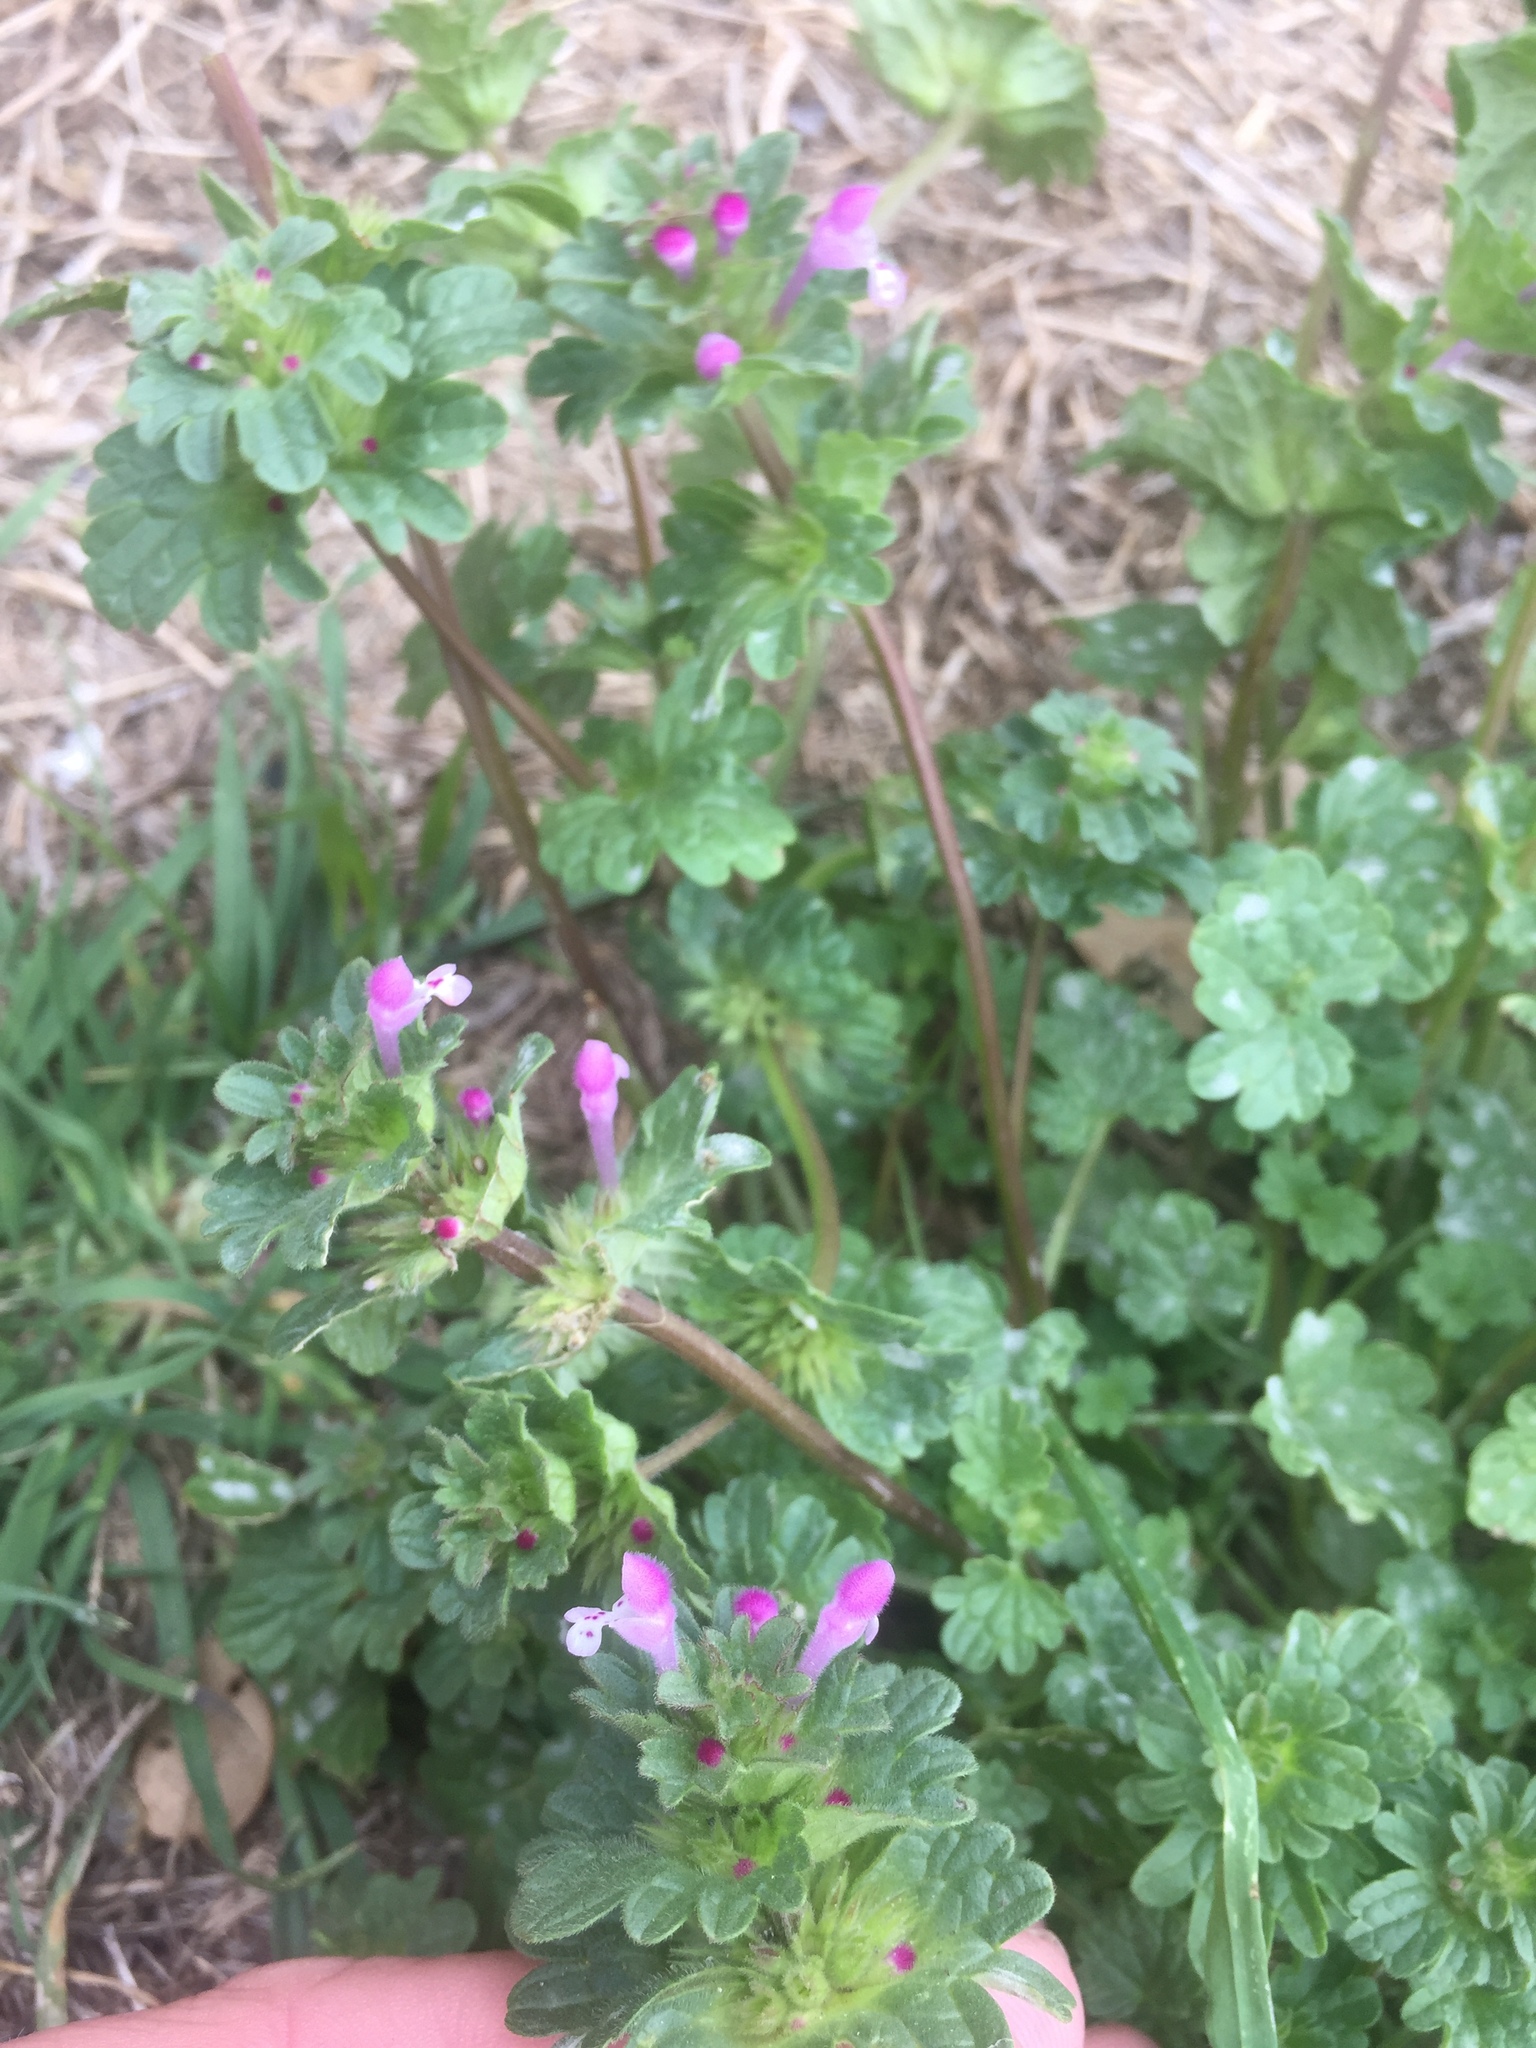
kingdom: Plantae
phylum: Tracheophyta
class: Magnoliopsida
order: Lamiales
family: Lamiaceae
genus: Lamium
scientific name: Lamium amplexicaule
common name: Henbit dead-nettle
